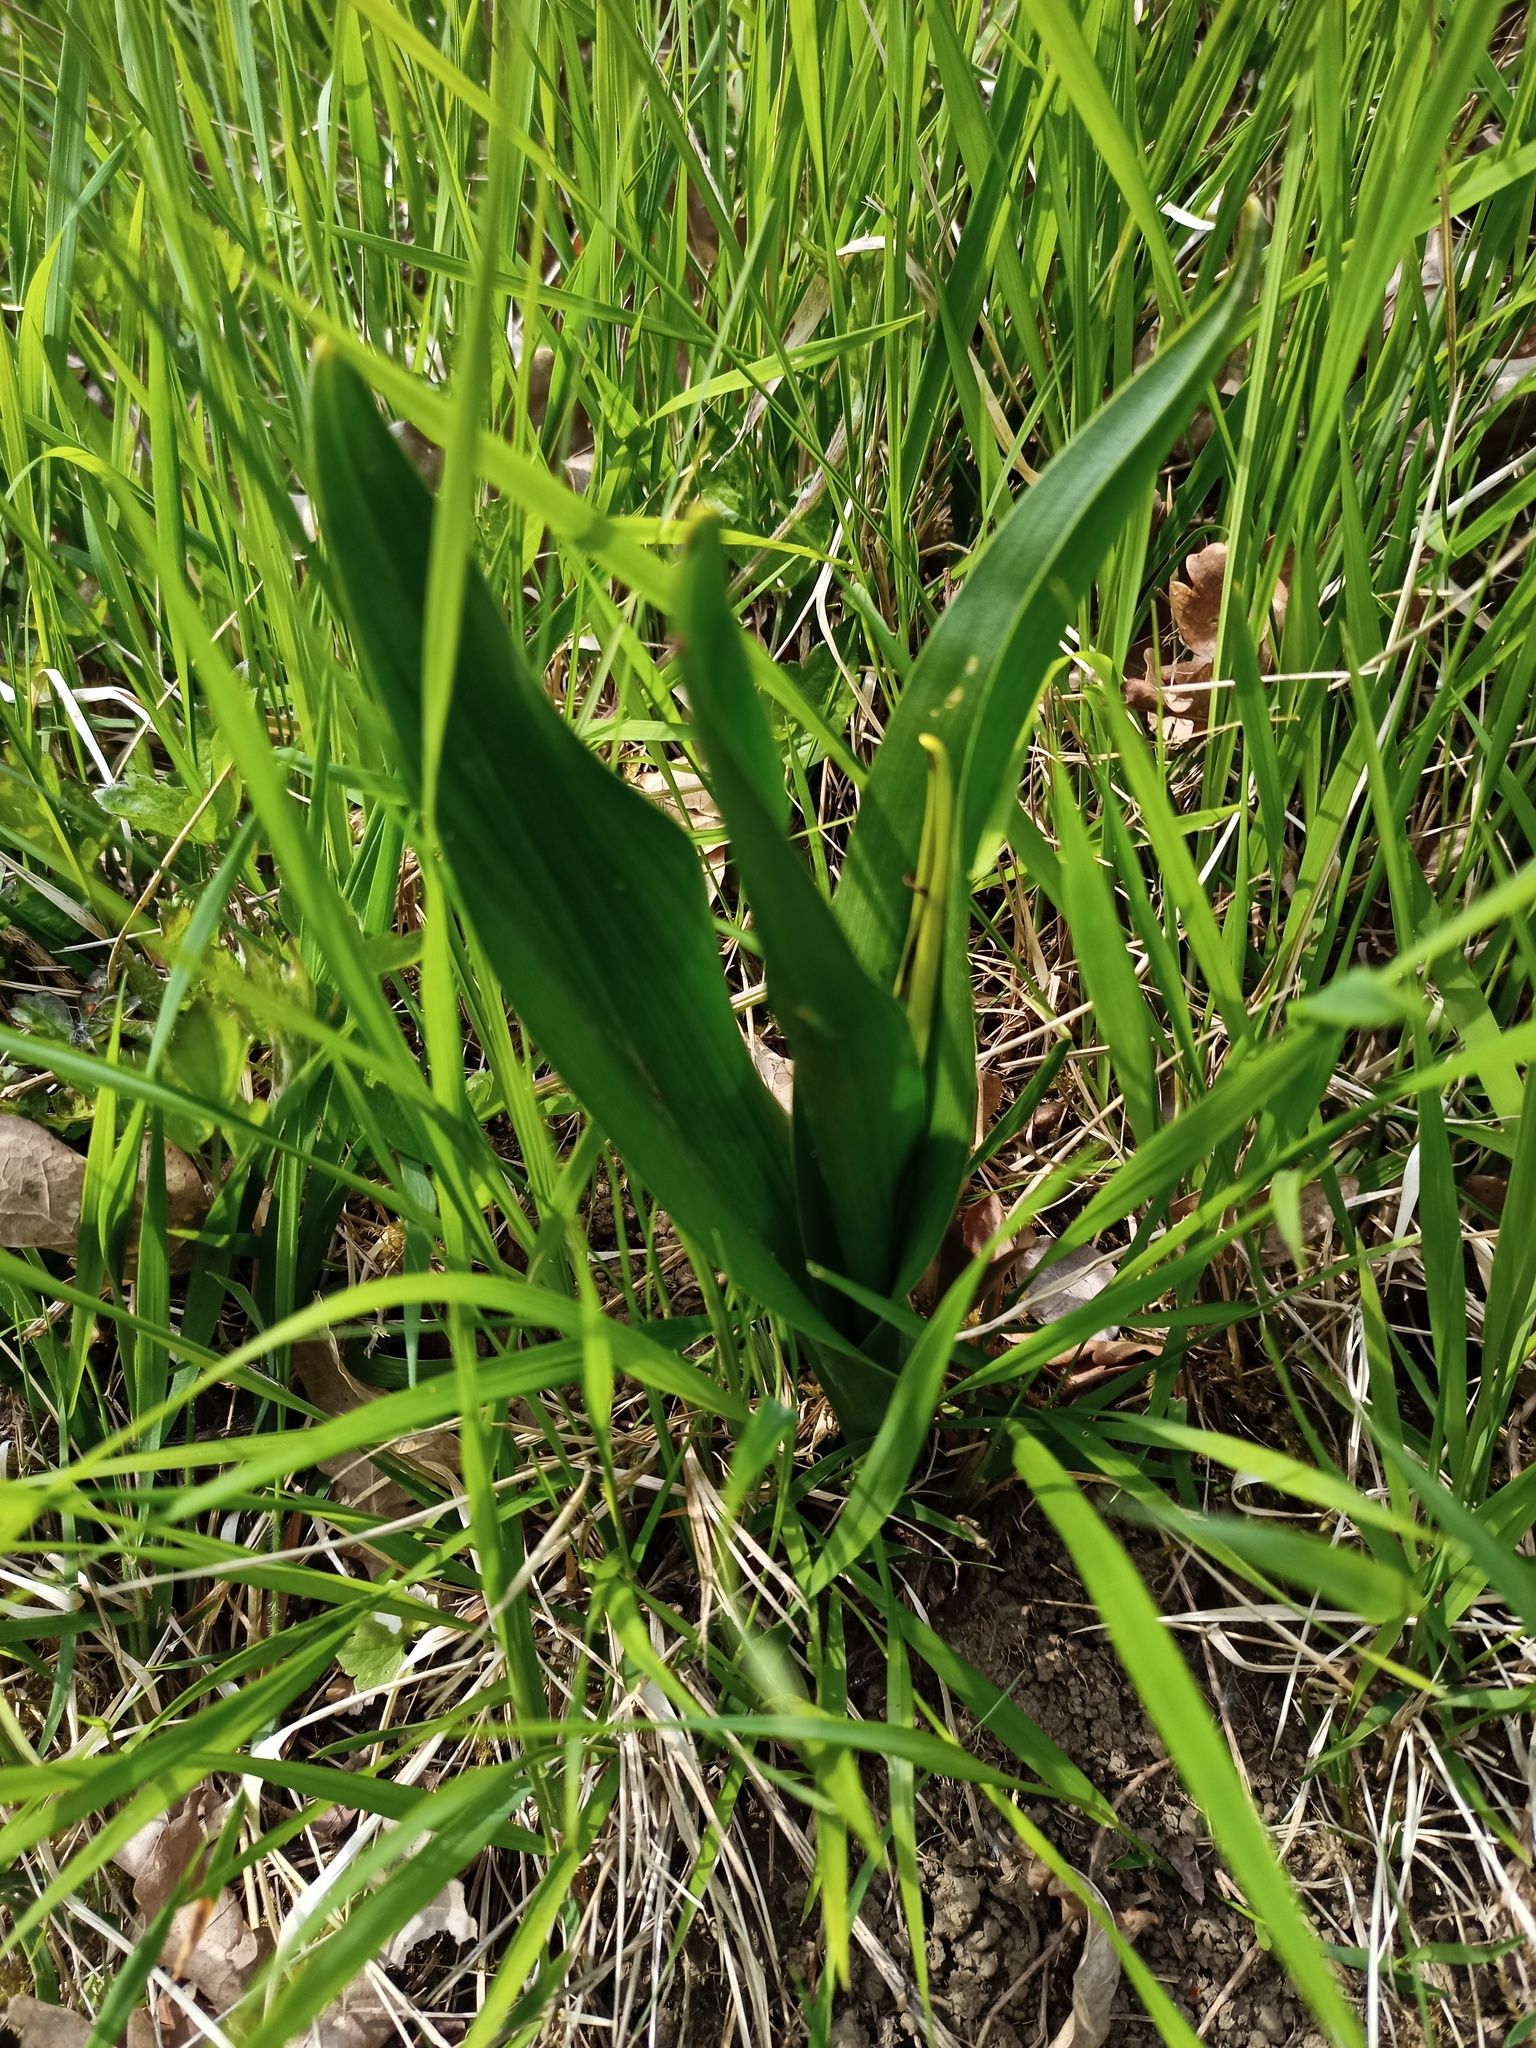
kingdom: Plantae
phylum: Tracheophyta
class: Liliopsida
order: Liliales
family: Colchicaceae
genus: Colchicum
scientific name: Colchicum autumnale
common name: Autumn crocus
